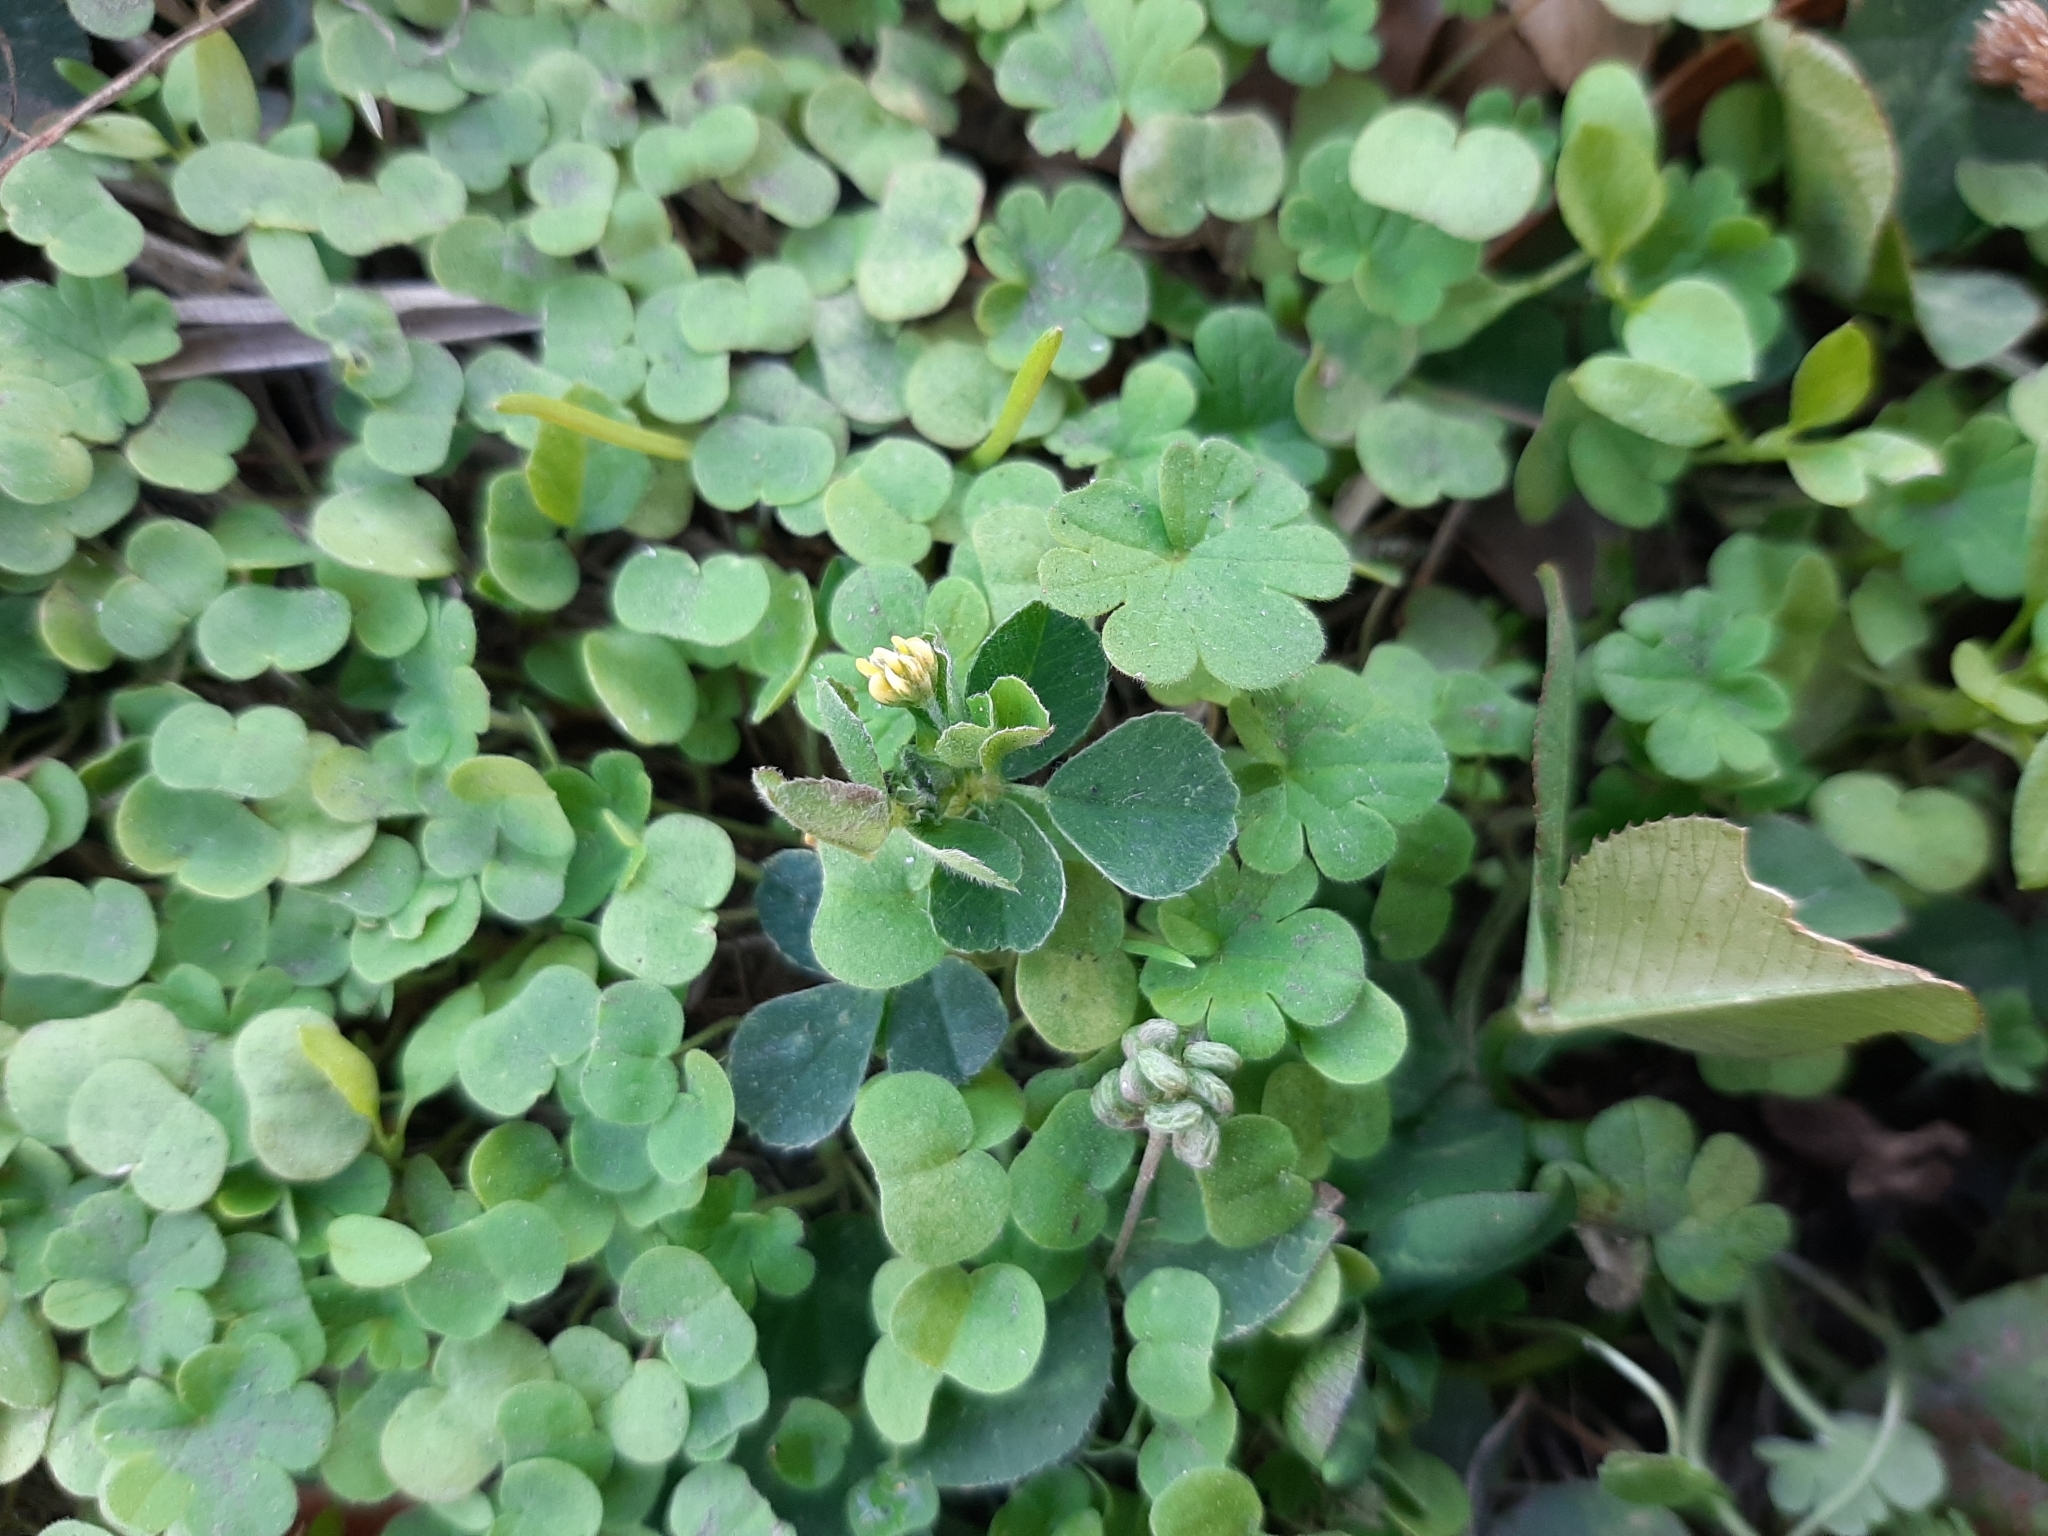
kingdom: Plantae
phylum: Tracheophyta
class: Magnoliopsida
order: Fabales
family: Fabaceae
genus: Medicago
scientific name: Medicago lupulina
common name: Black medick
